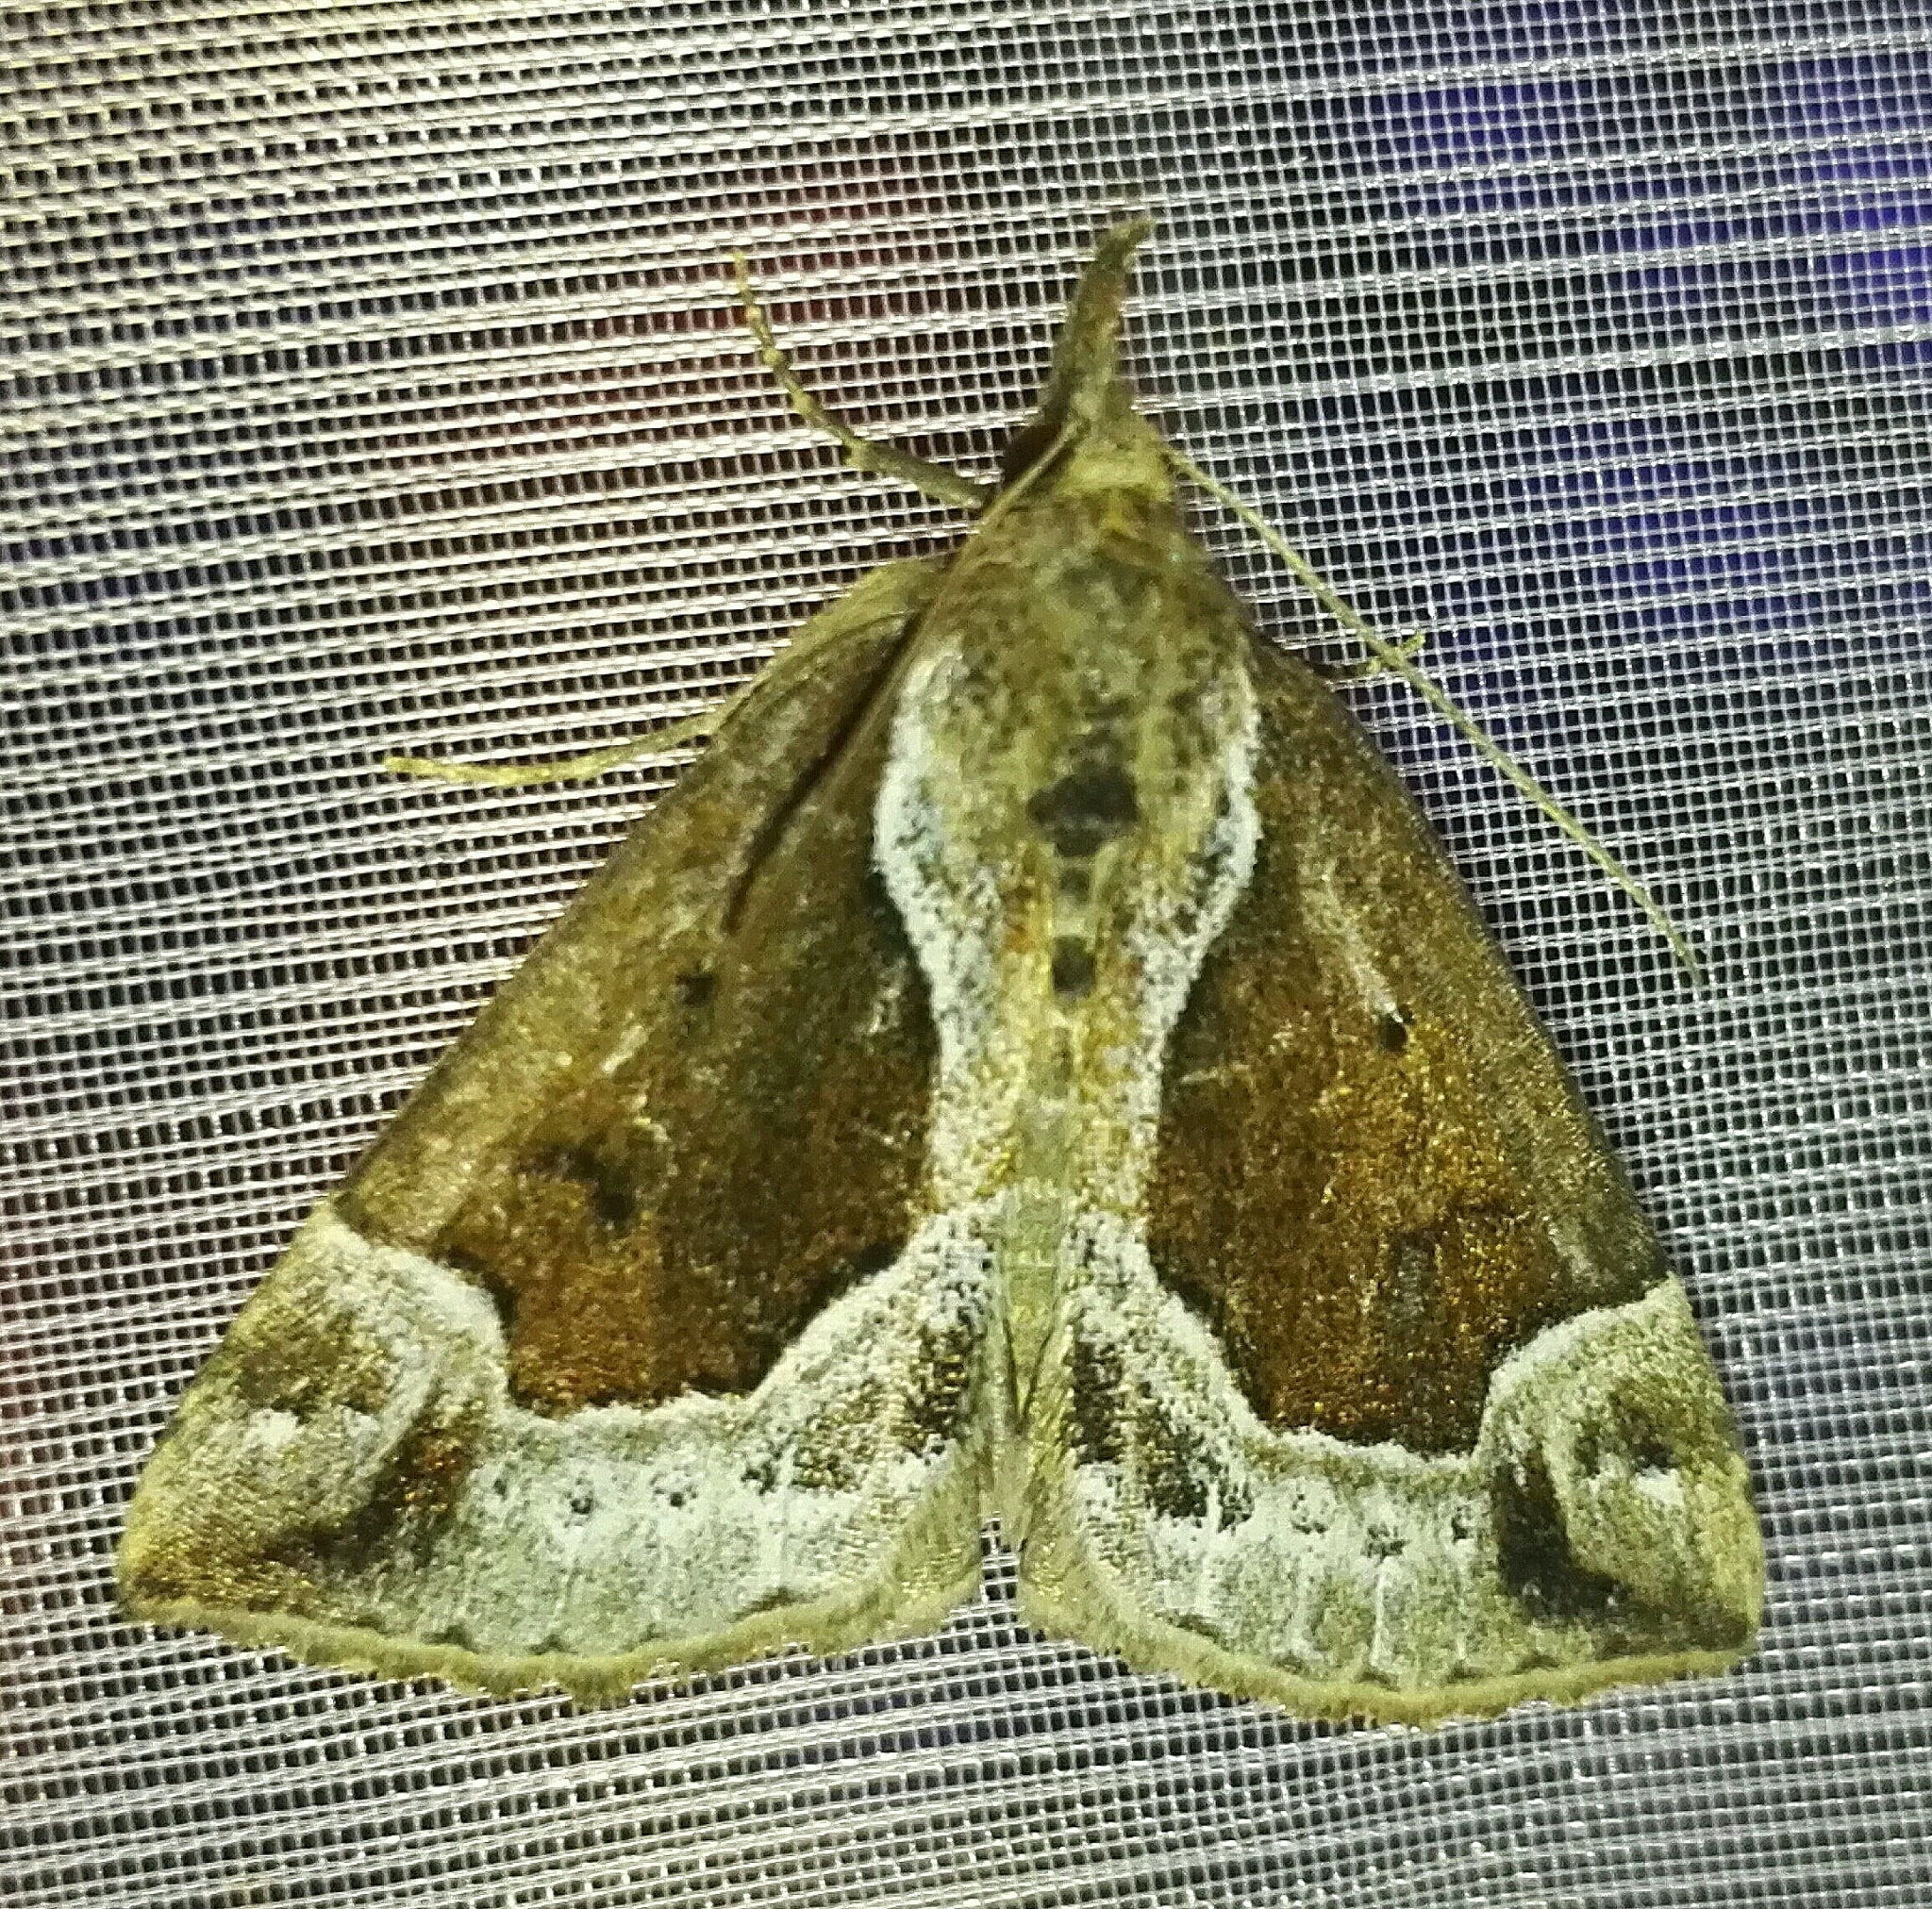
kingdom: Animalia
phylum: Arthropoda
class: Insecta
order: Lepidoptera
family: Erebidae
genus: Hypena
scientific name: Hypena crassalis
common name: Beautiful snout
